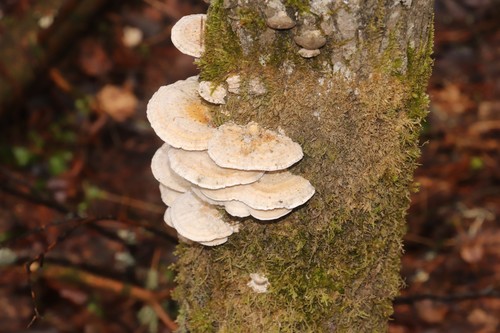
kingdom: Fungi
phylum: Basidiomycota
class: Agaricomycetes
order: Polyporales
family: Polyporaceae
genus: Trametes
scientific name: Trametes ochracea
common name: Ochre bracket
